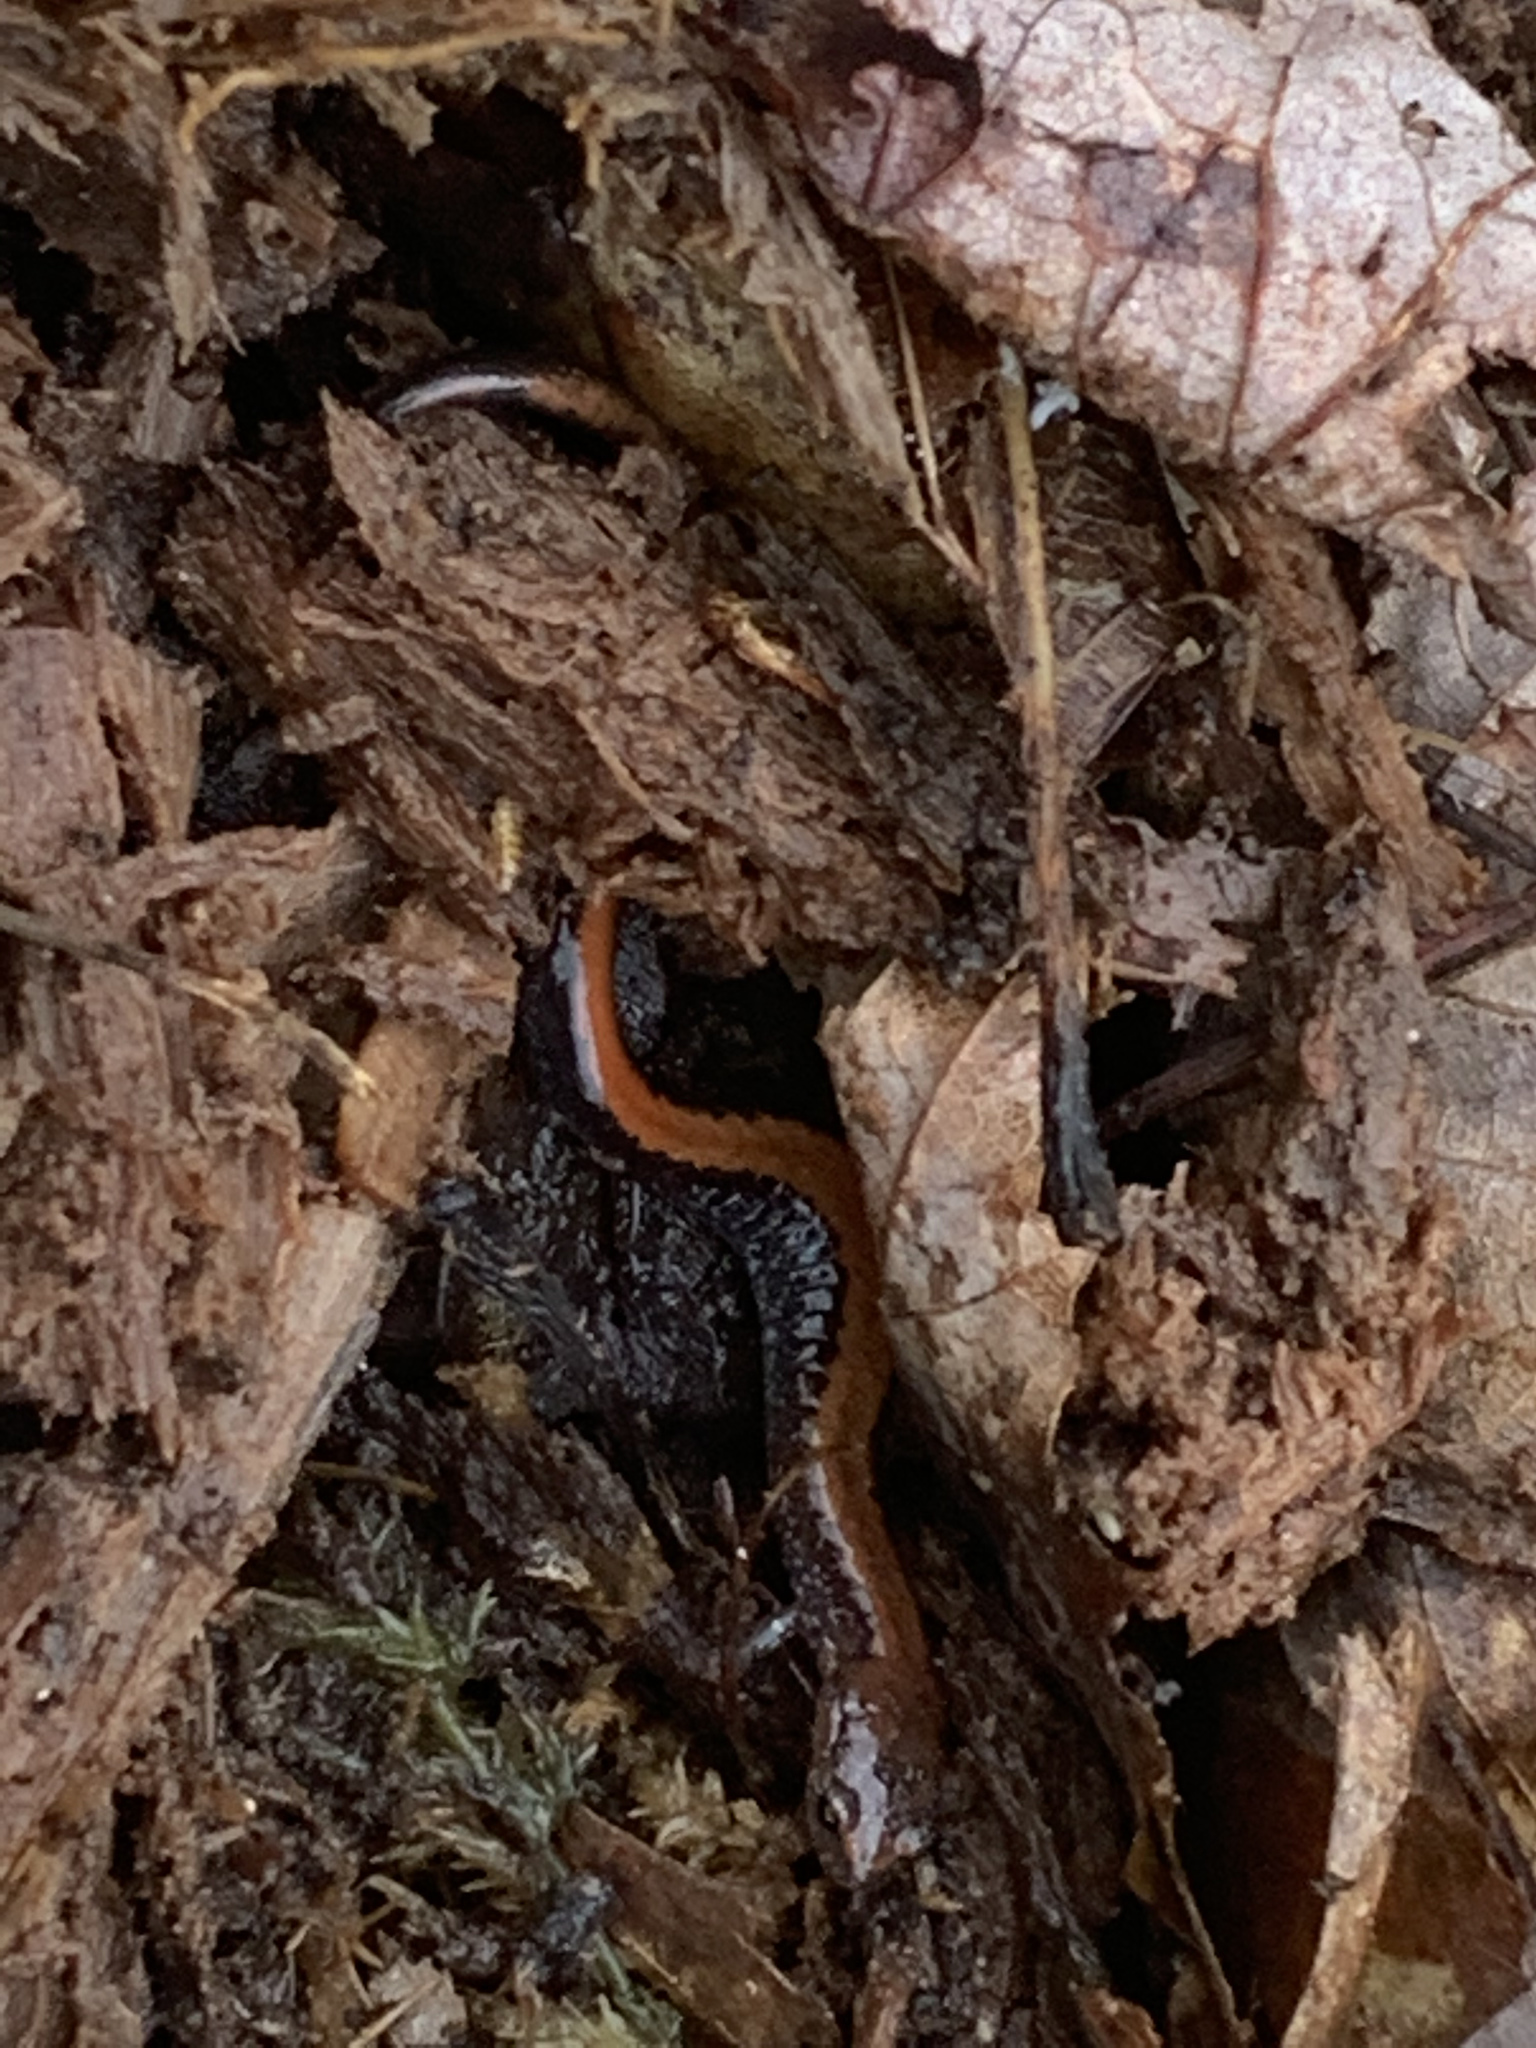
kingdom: Animalia
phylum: Chordata
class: Amphibia
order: Caudata
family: Plethodontidae
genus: Plethodon
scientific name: Plethodon cinereus
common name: Redback salamander
